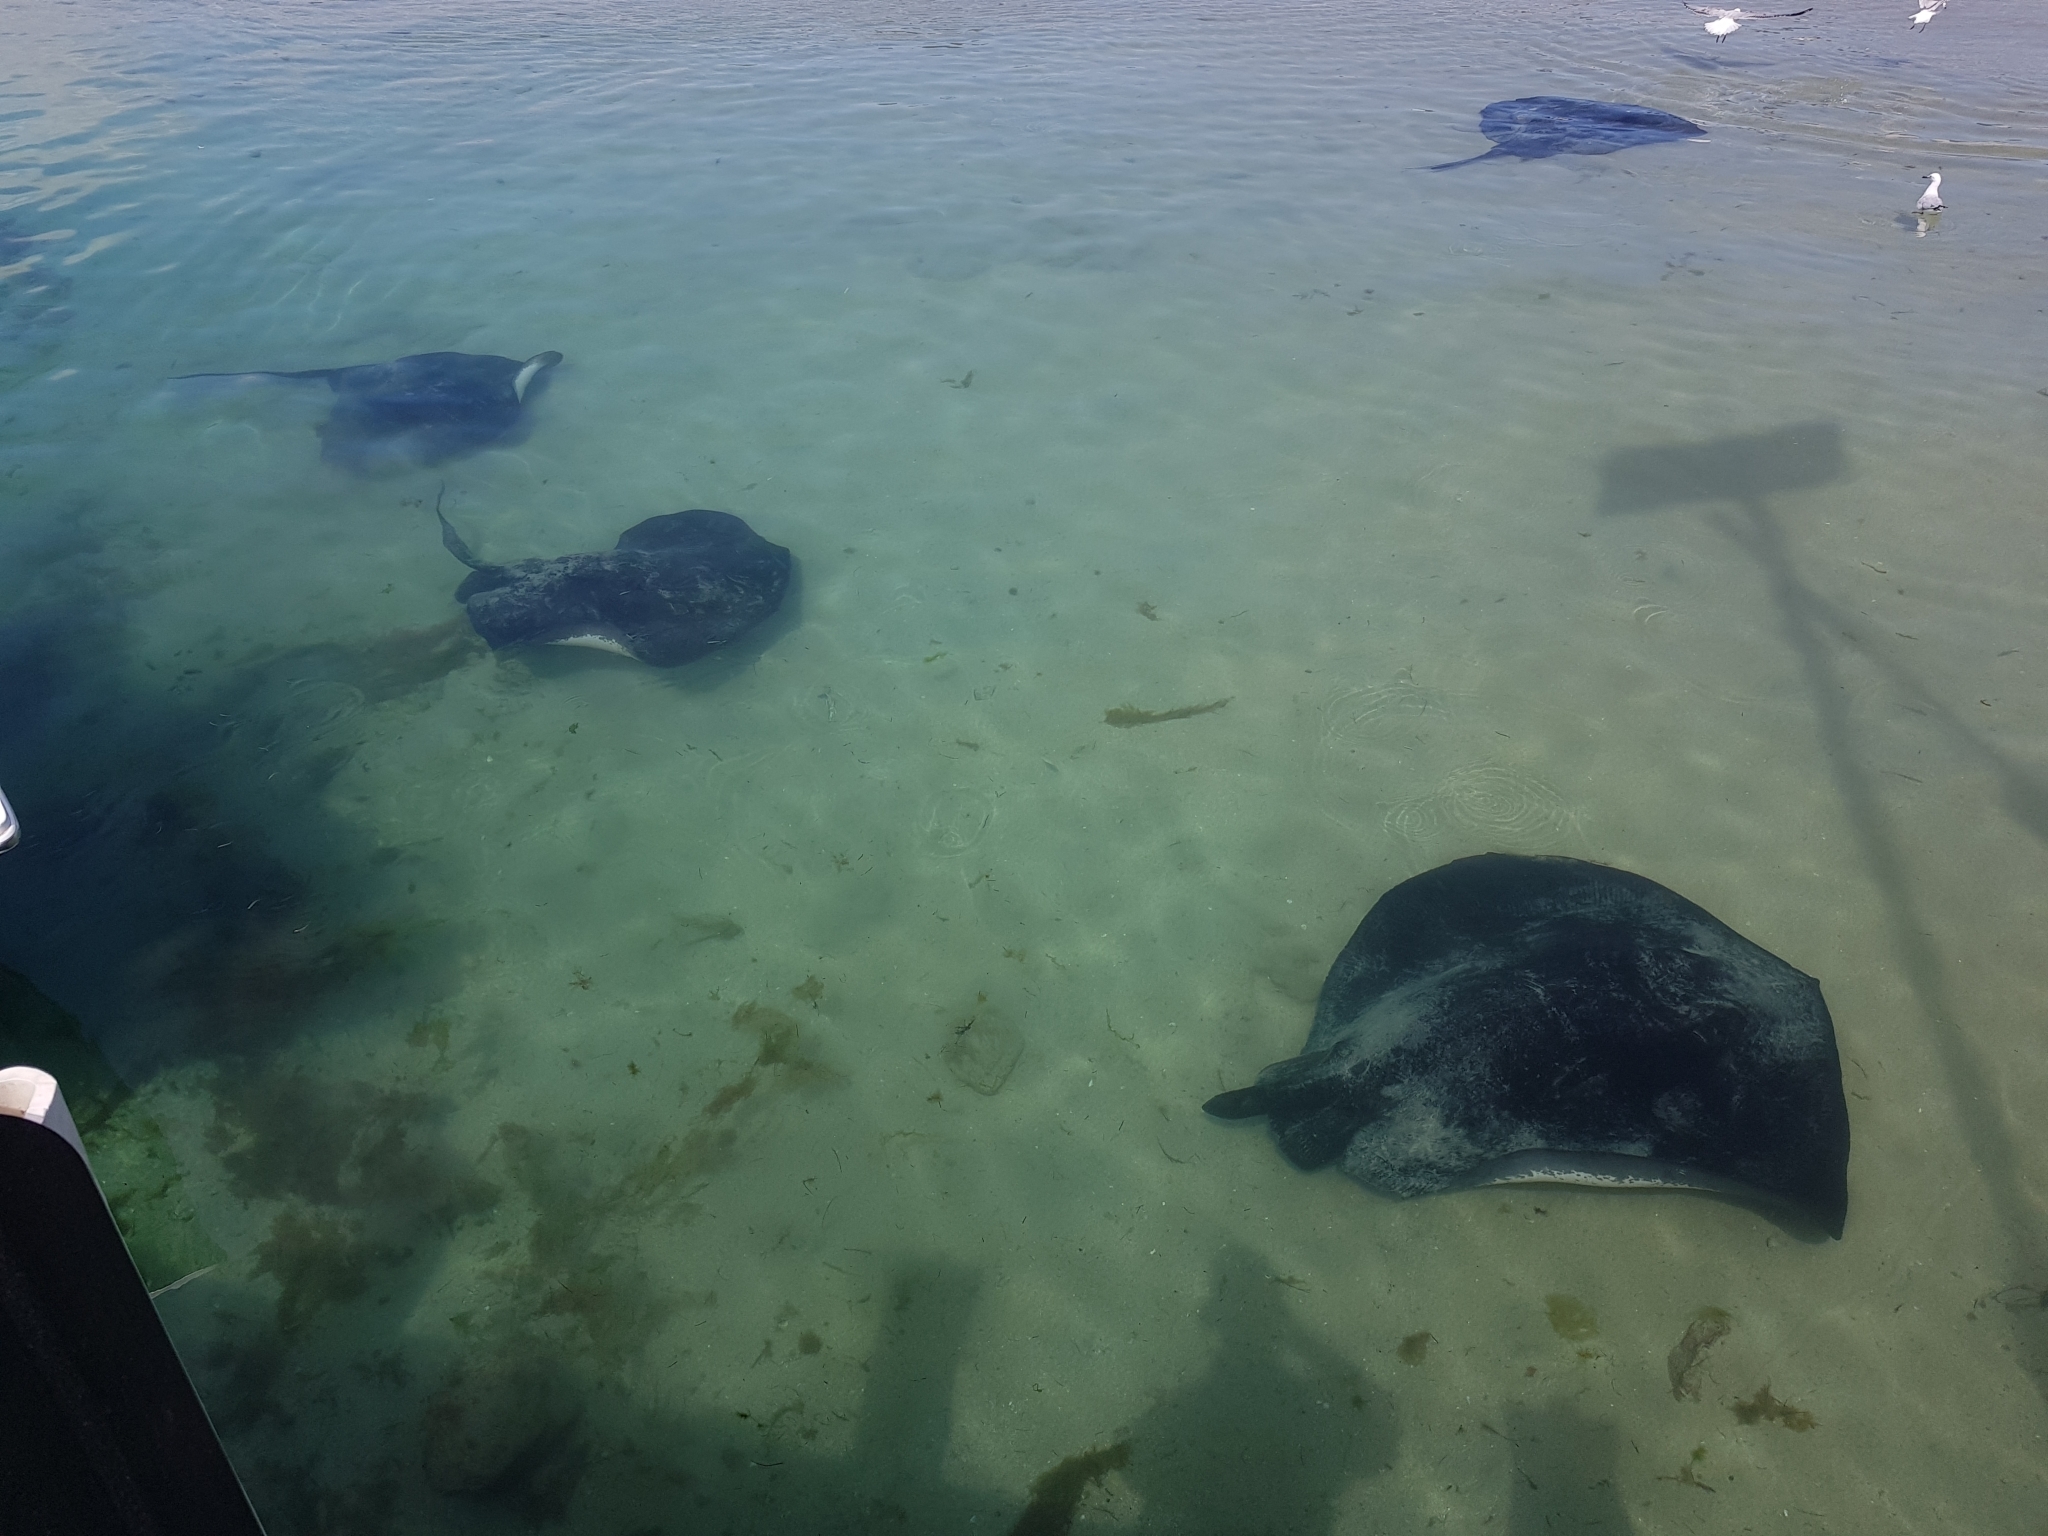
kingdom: Animalia
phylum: Chordata
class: Elasmobranchii
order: Myliobatiformes
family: Dasyatidae
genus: Bathytoshia
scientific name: Bathytoshia brevicaudata
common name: Short-tail stingray
